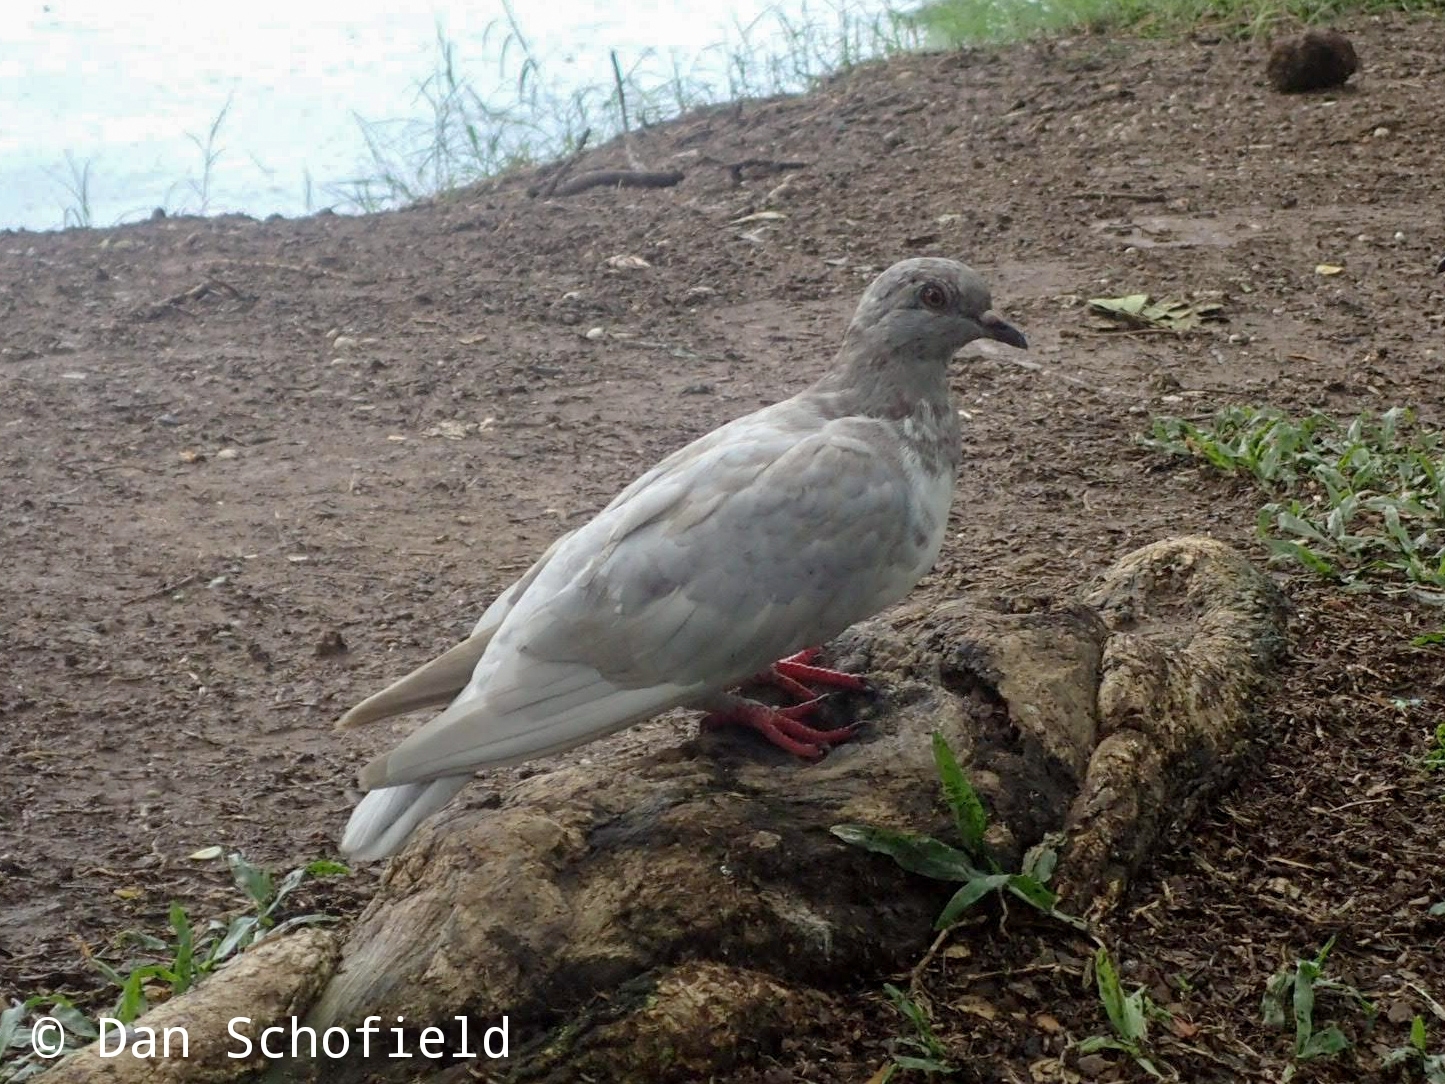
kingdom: Animalia
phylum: Chordata
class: Aves
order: Columbiformes
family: Columbidae
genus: Columba
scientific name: Columba livia
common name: Rock pigeon
